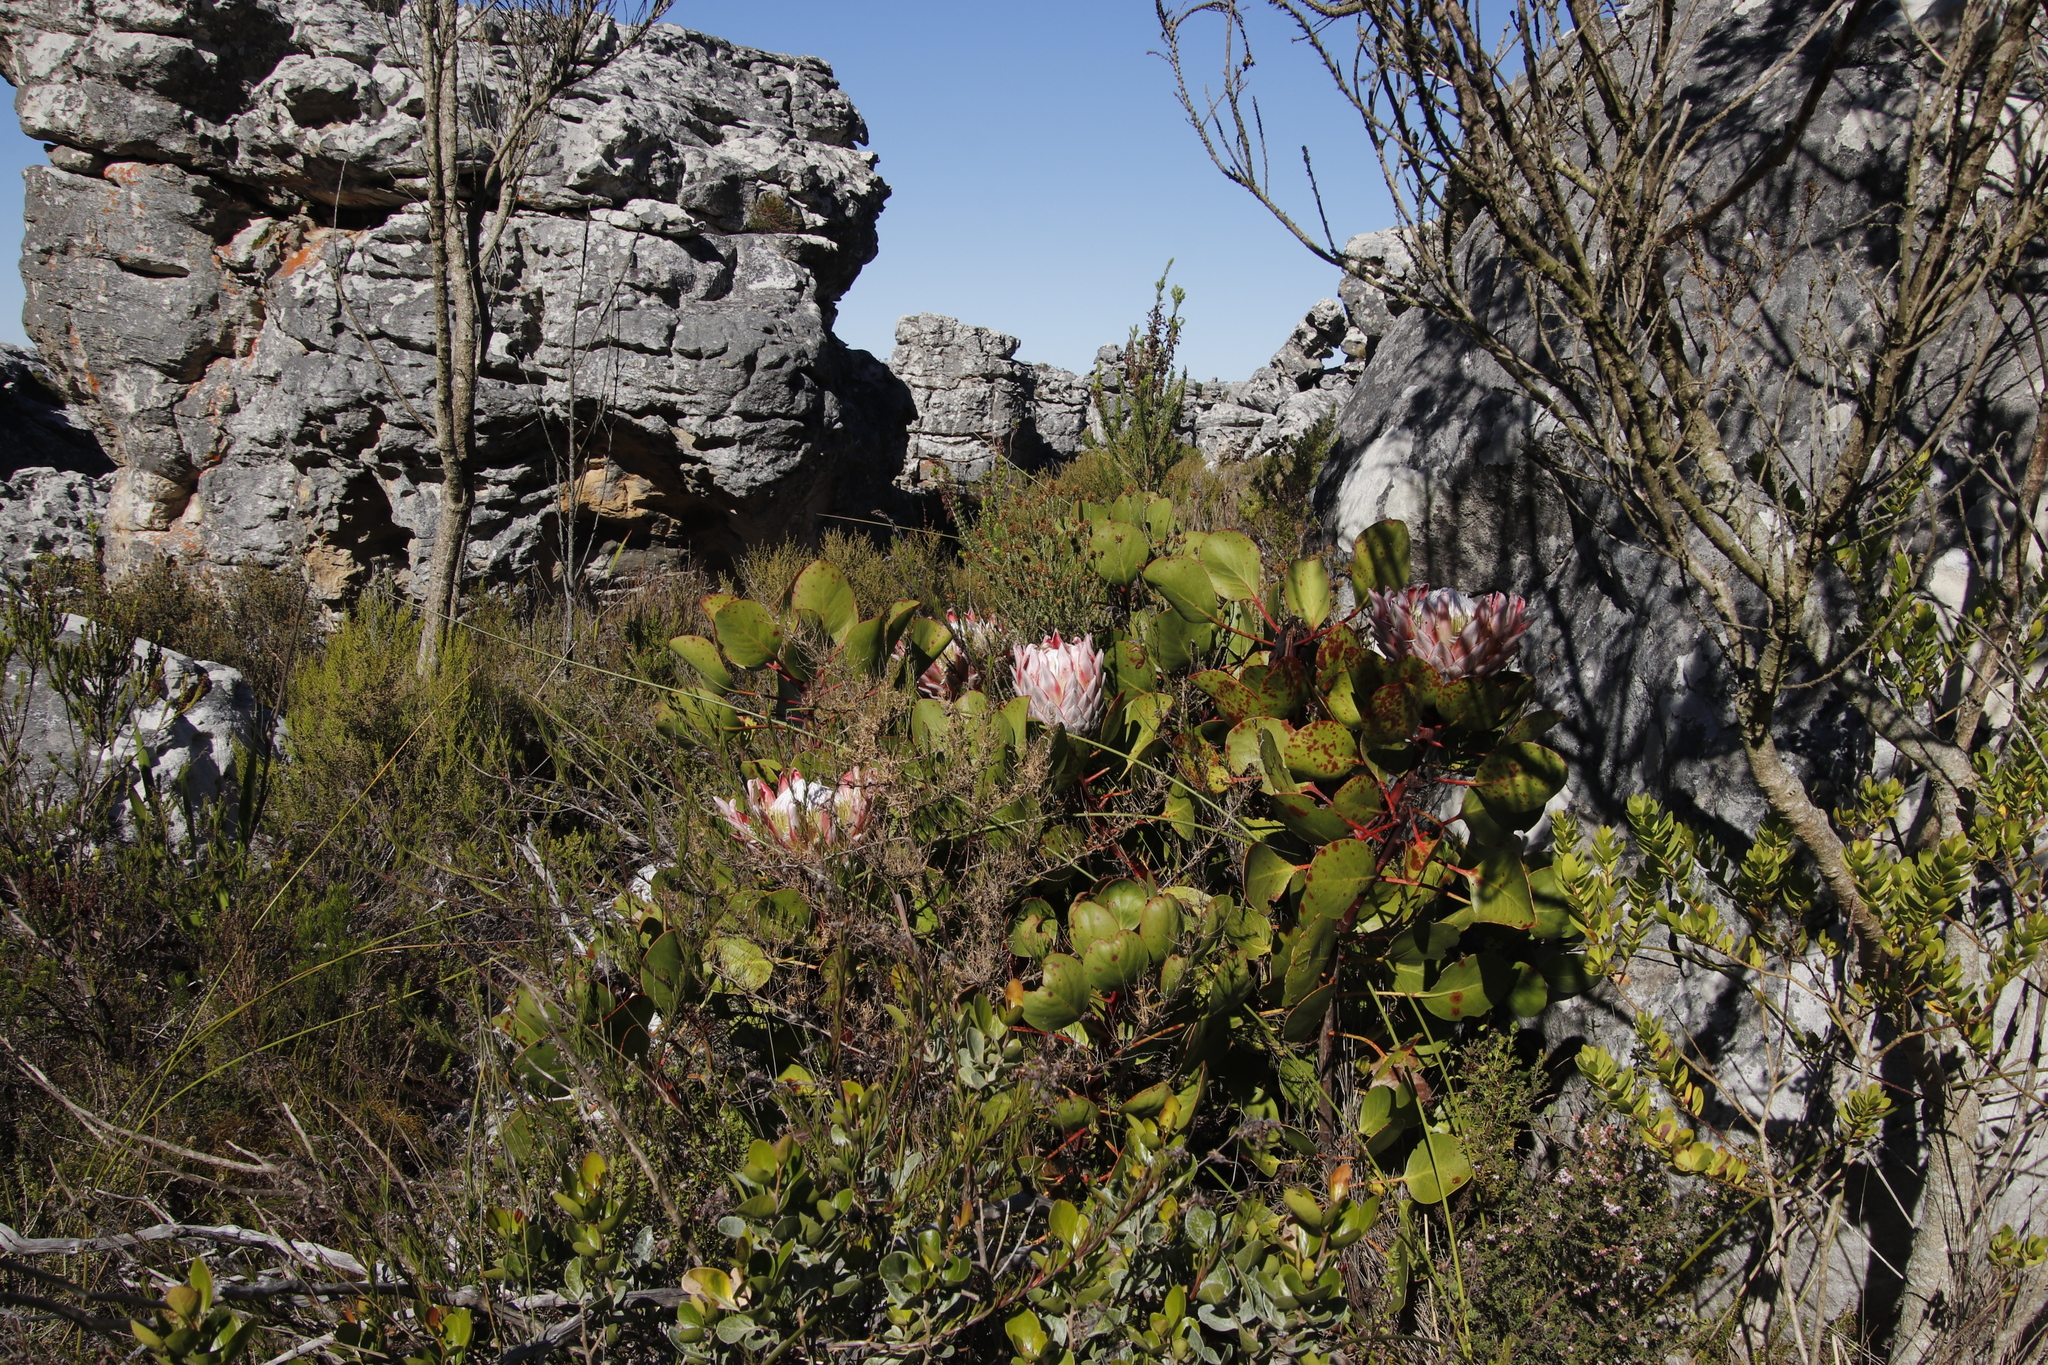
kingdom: Plantae
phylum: Tracheophyta
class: Magnoliopsida
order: Proteales
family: Proteaceae
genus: Protea
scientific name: Protea cynaroides
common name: King protea
